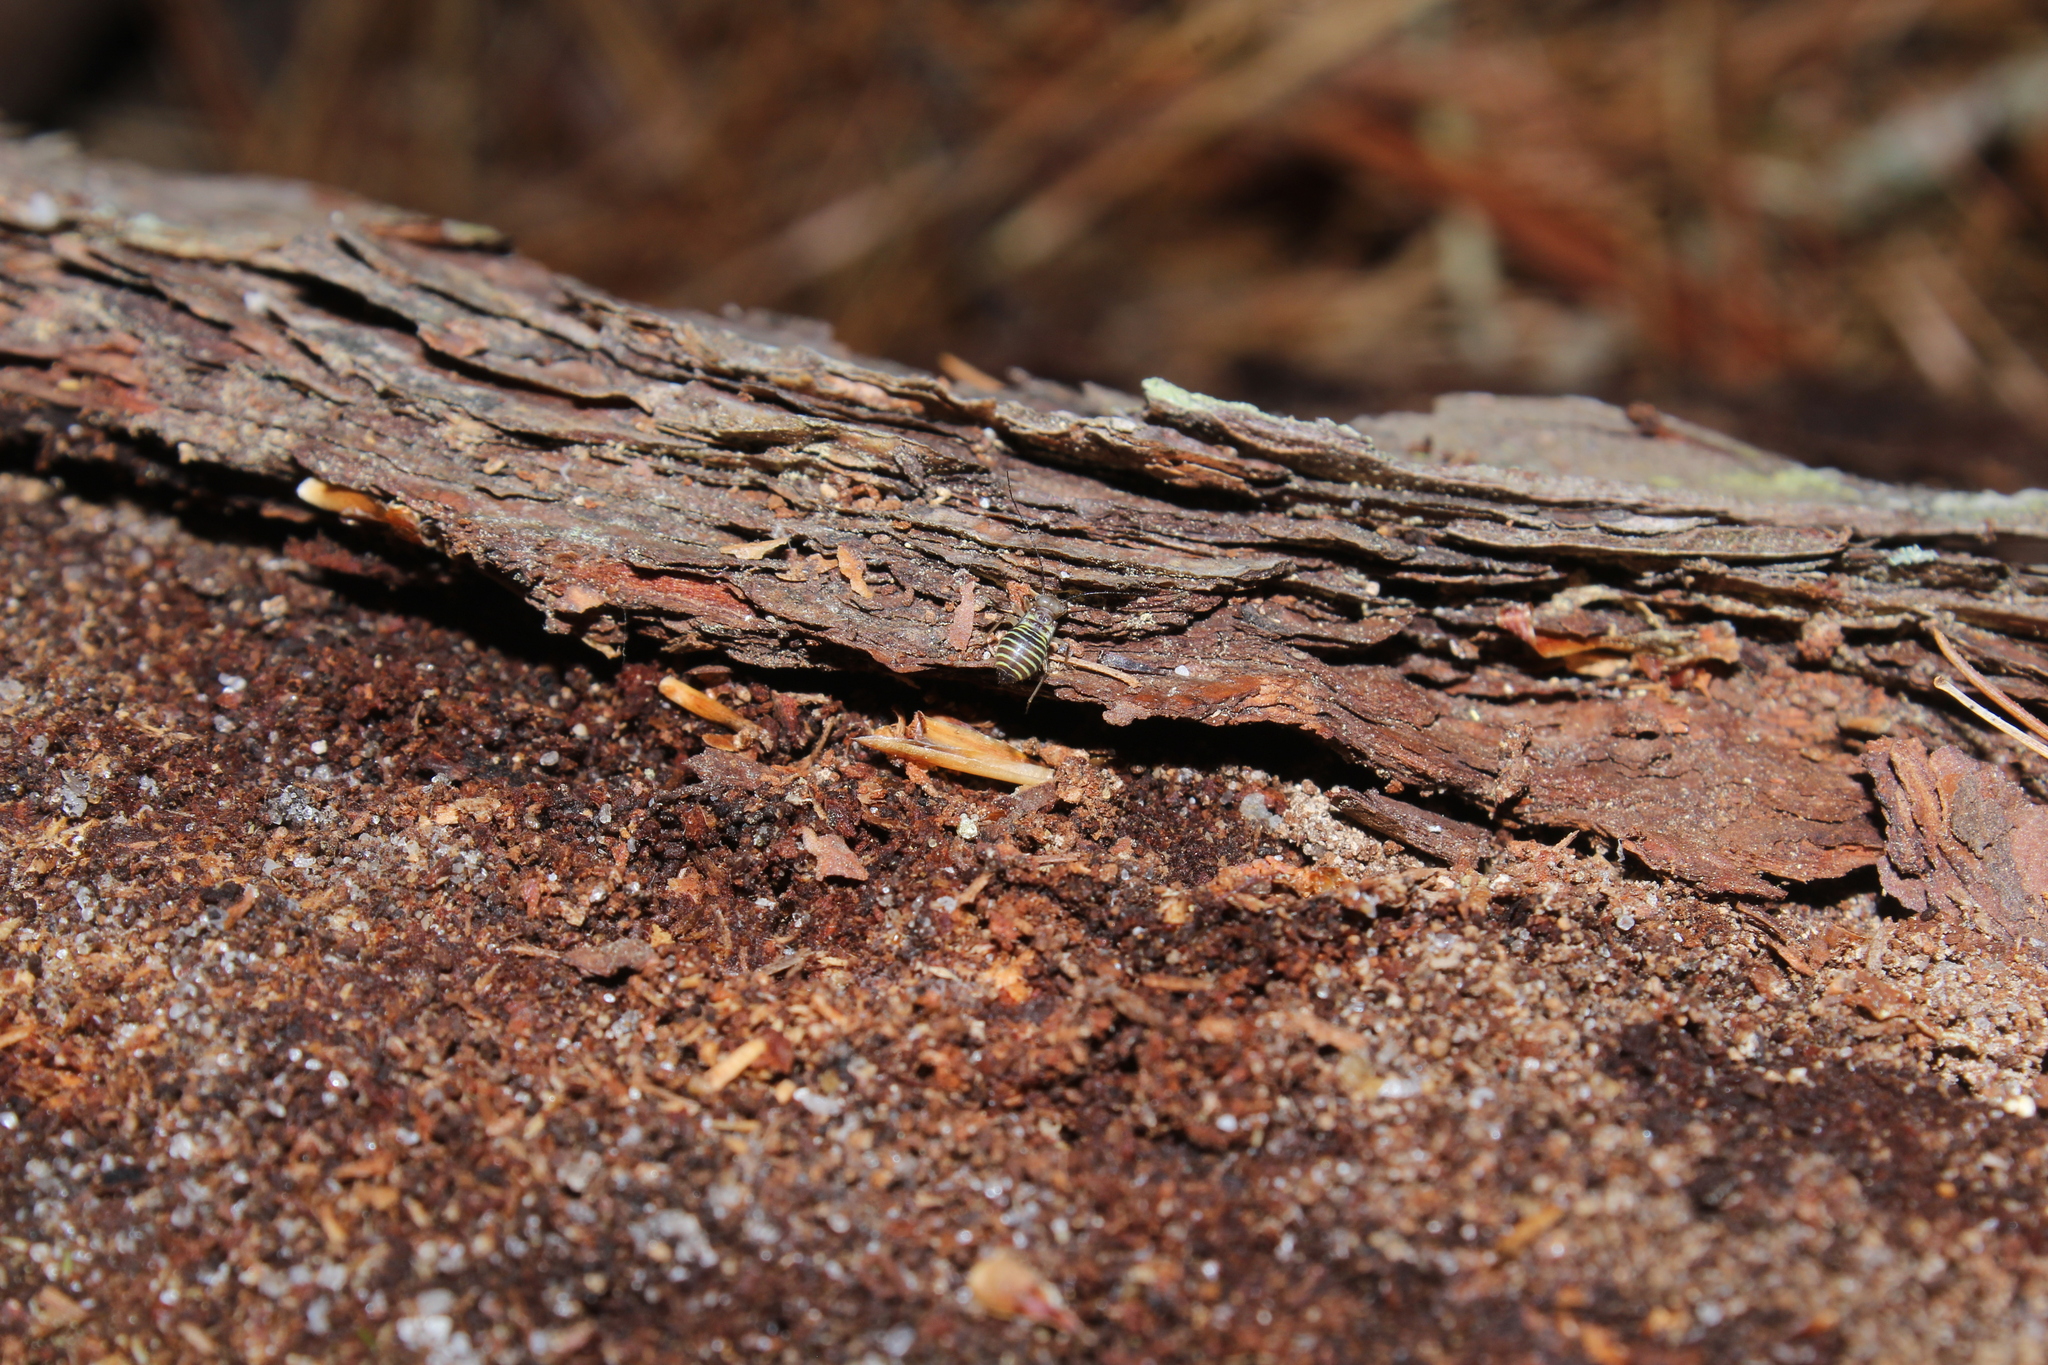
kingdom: Animalia
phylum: Arthropoda
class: Insecta
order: Psocodea
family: Psocidae
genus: Cerastipsocus
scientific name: Cerastipsocus venosus
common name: Tree cattle
